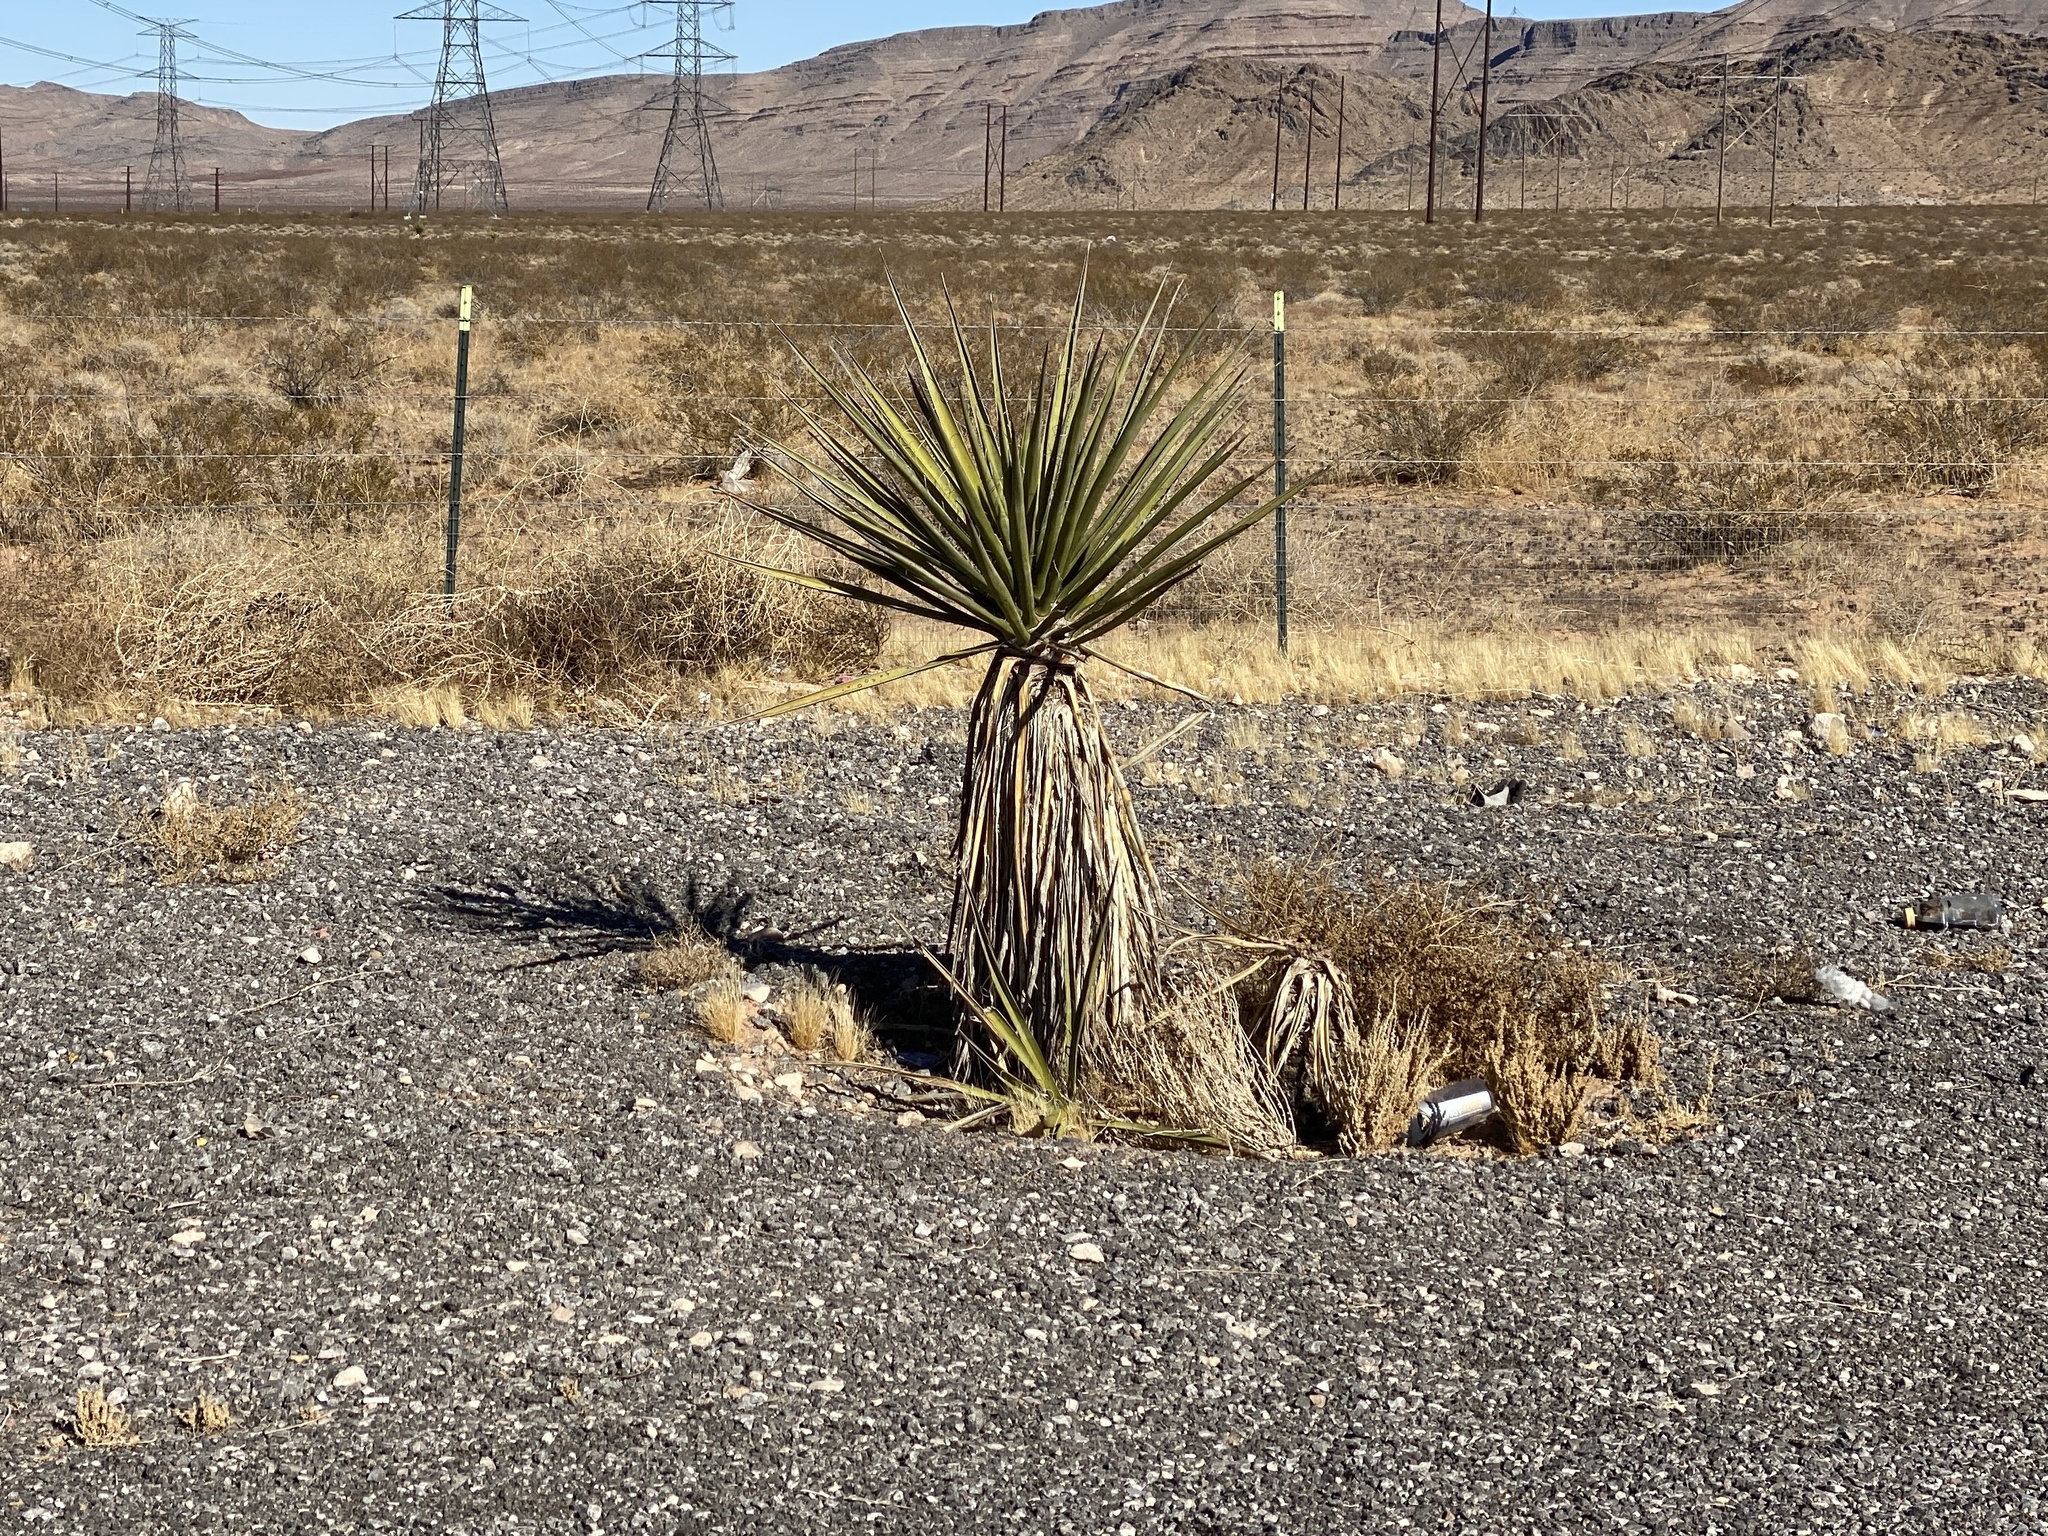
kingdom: Plantae
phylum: Tracheophyta
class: Liliopsida
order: Asparagales
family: Asparagaceae
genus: Yucca
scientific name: Yucca schidigera
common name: Mojave yucca
